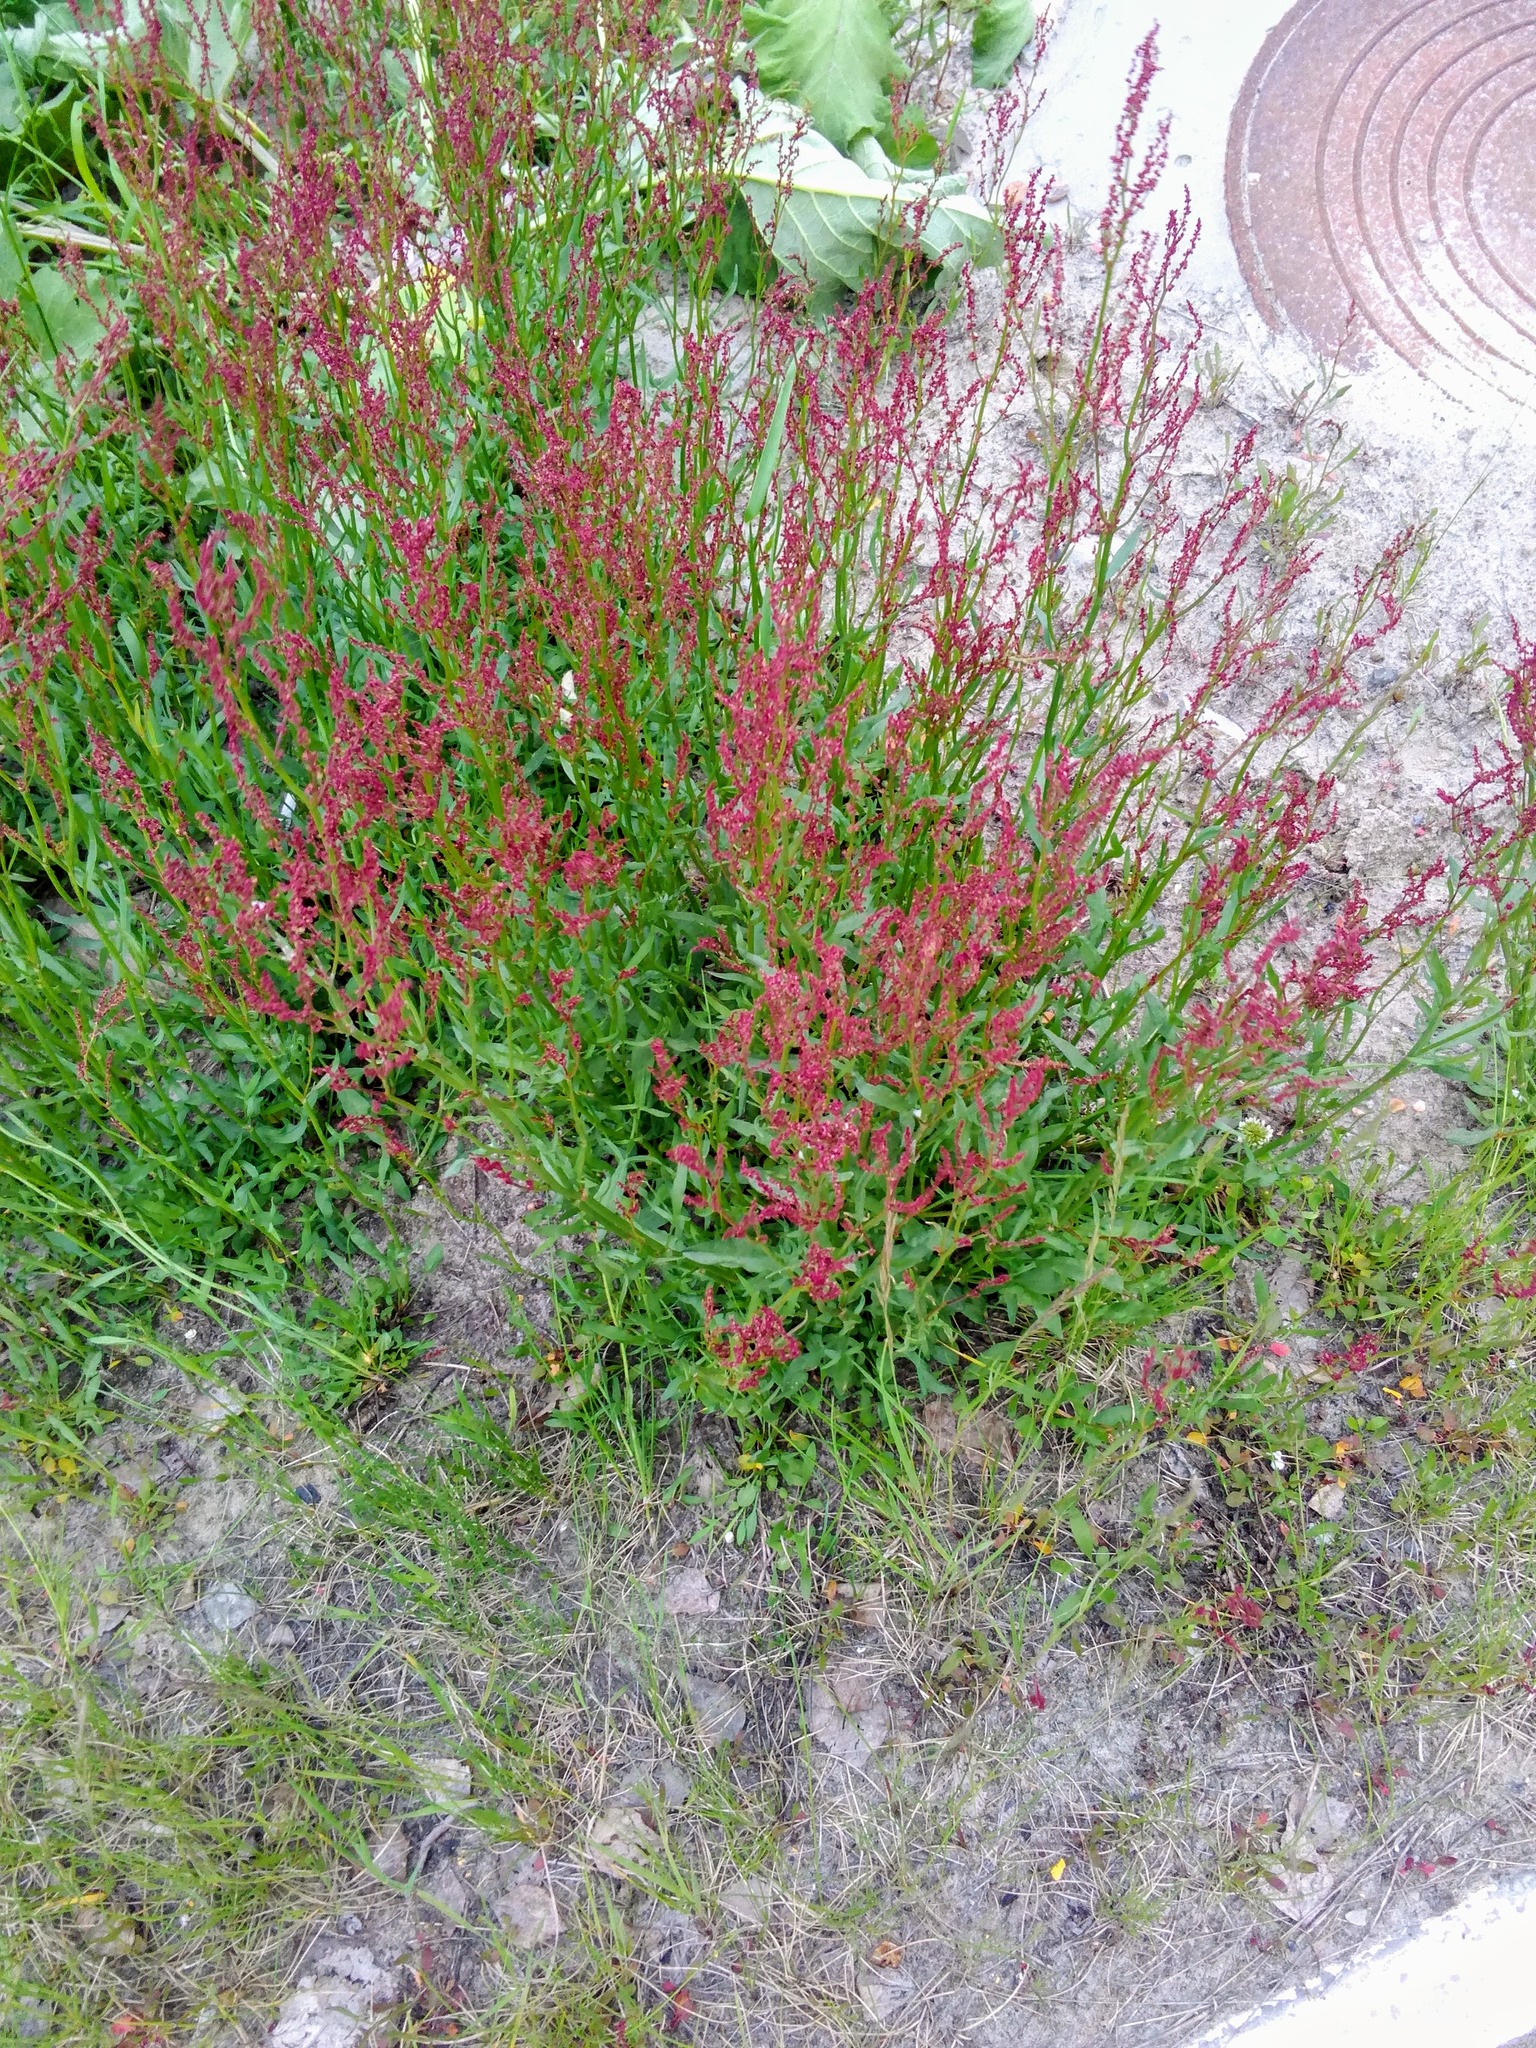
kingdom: Plantae
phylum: Tracheophyta
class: Magnoliopsida
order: Caryophyllales
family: Polygonaceae
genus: Rumex
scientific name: Rumex acetosella
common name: Common sheep sorrel
